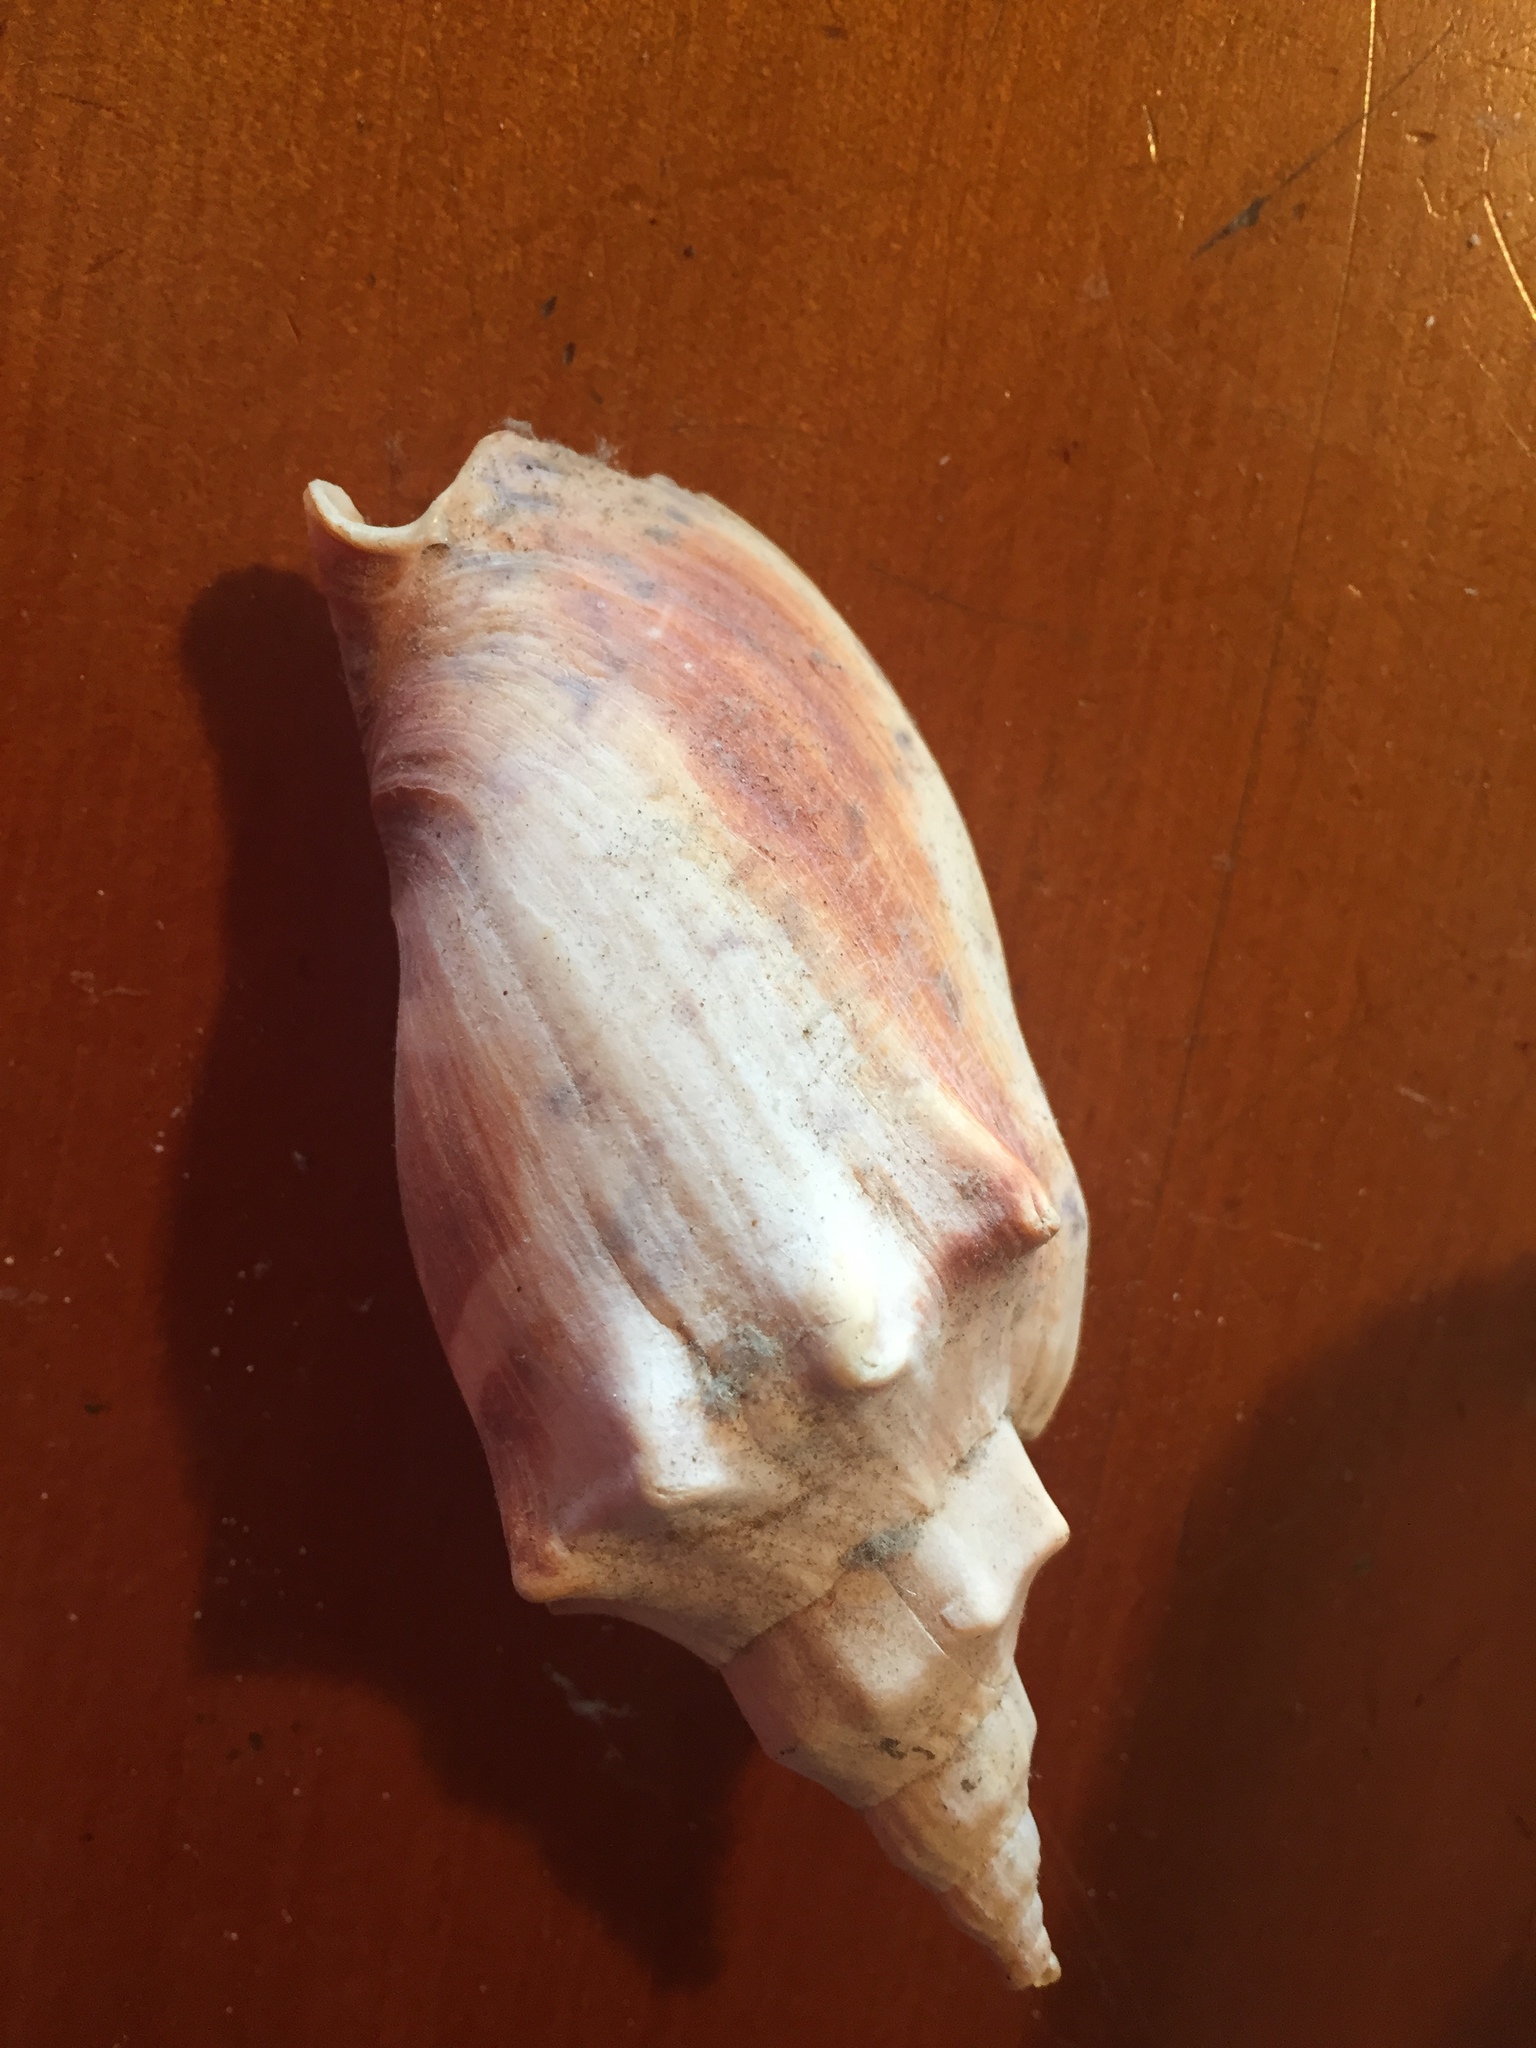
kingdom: Animalia
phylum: Mollusca
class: Gastropoda
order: Neogastropoda
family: Volutidae
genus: Alcithoe
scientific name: Alcithoe arabica
